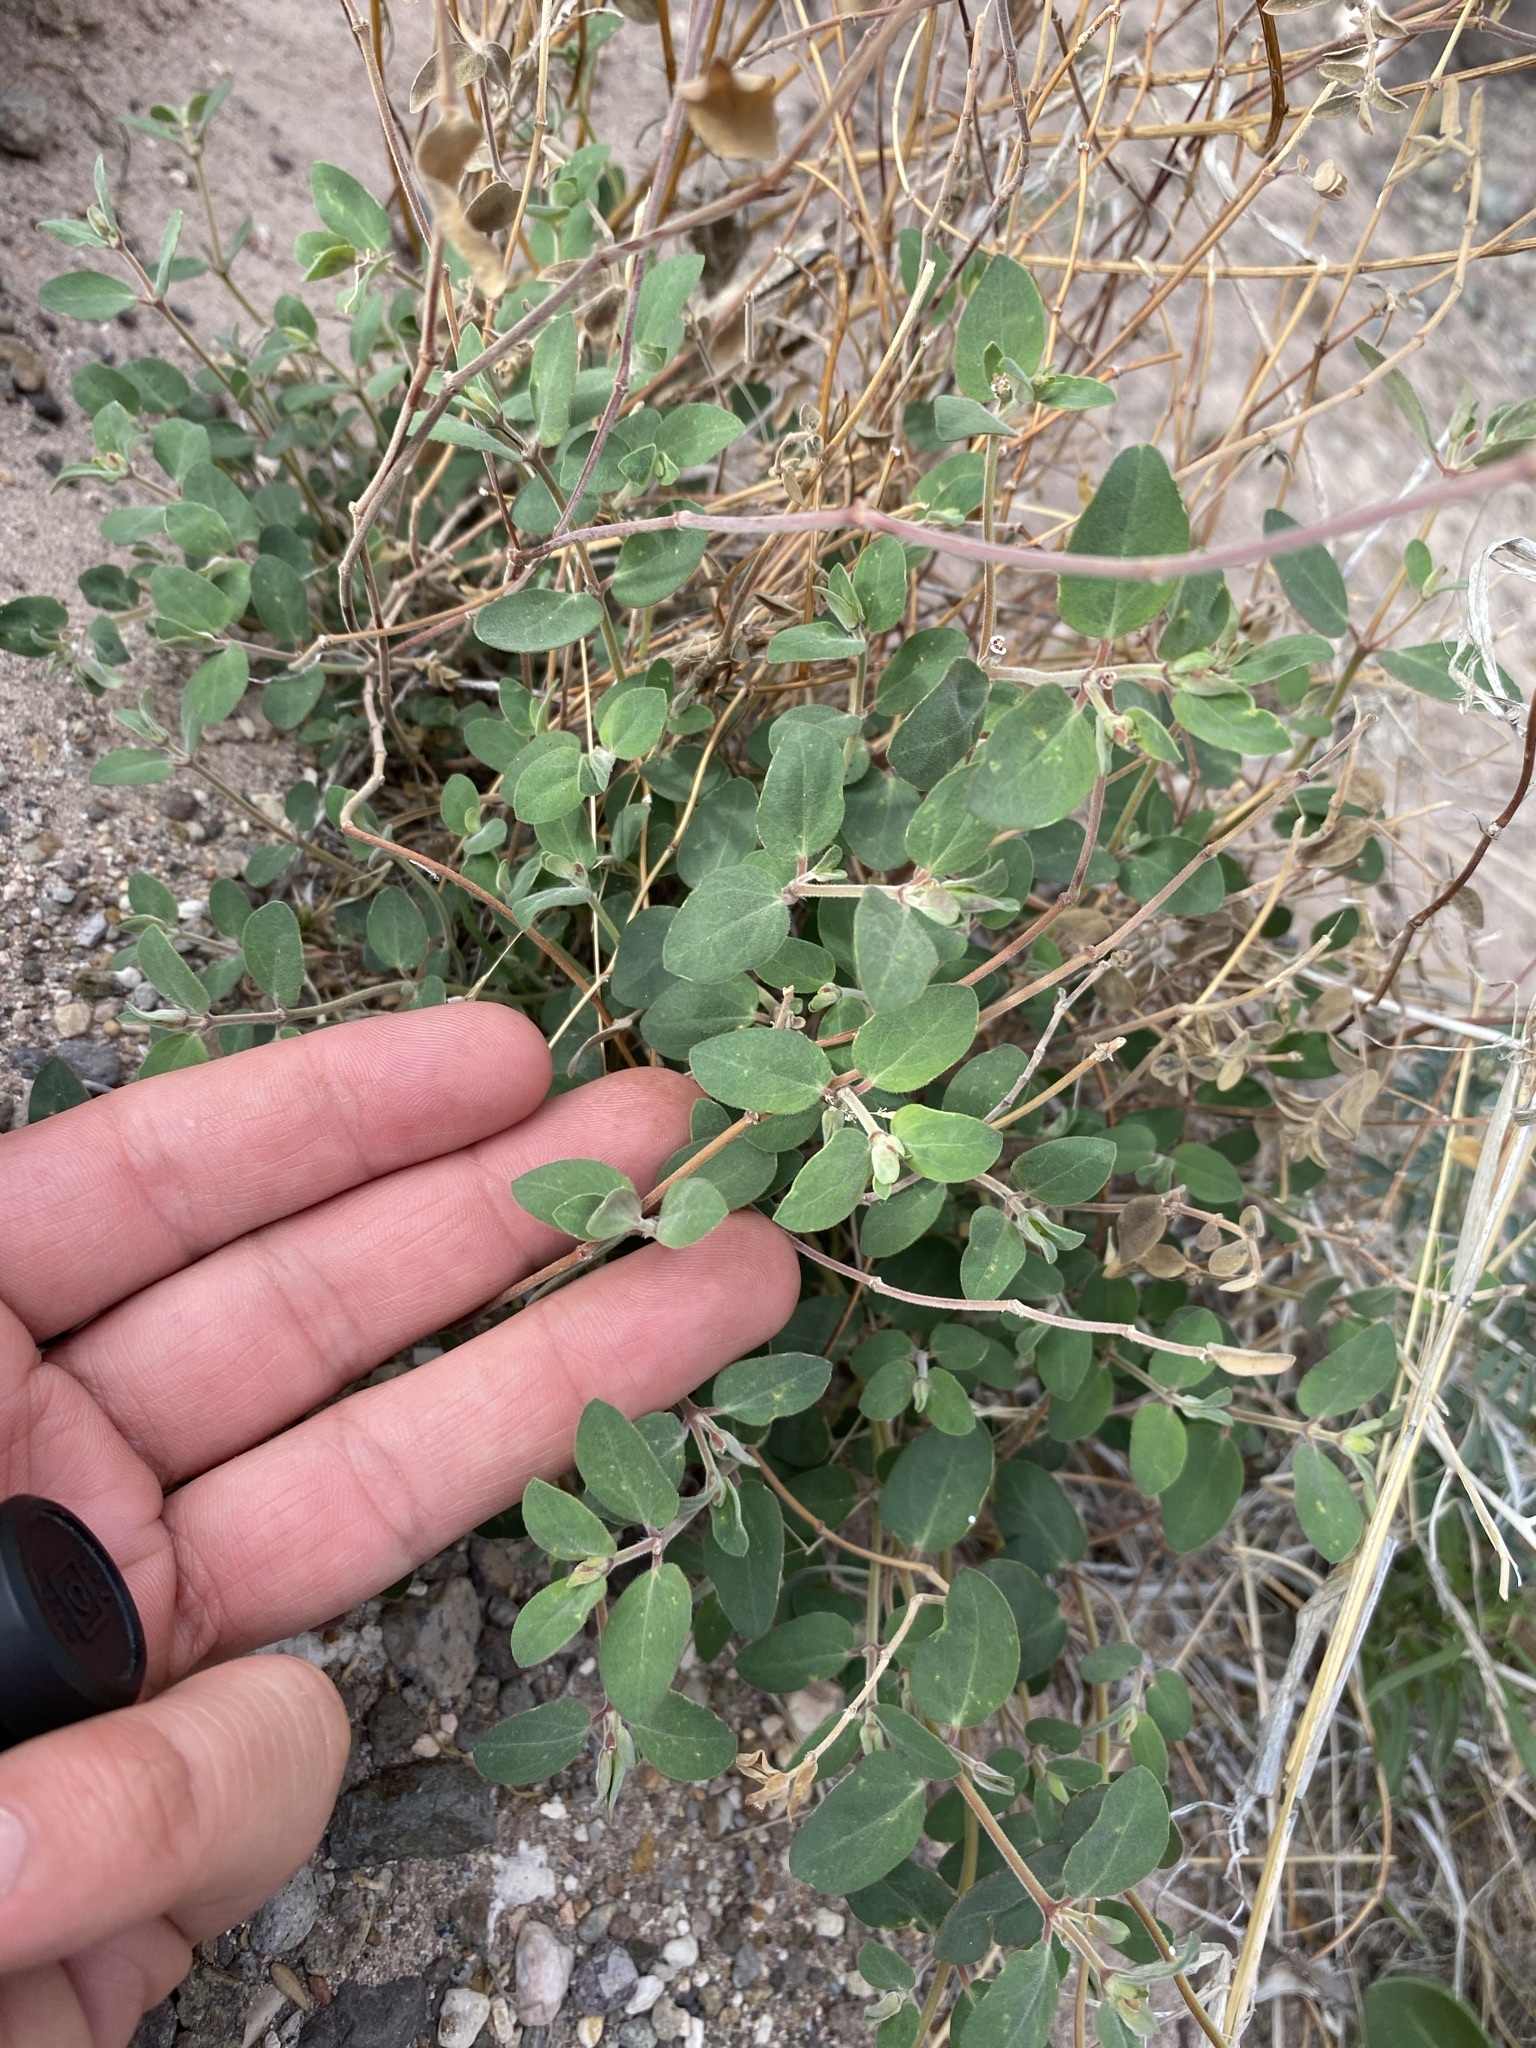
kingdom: Plantae
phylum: Tracheophyta
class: Magnoliopsida
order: Malpighiales
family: Euphorbiaceae
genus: Euphorbia
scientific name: Euphorbia capitellata
